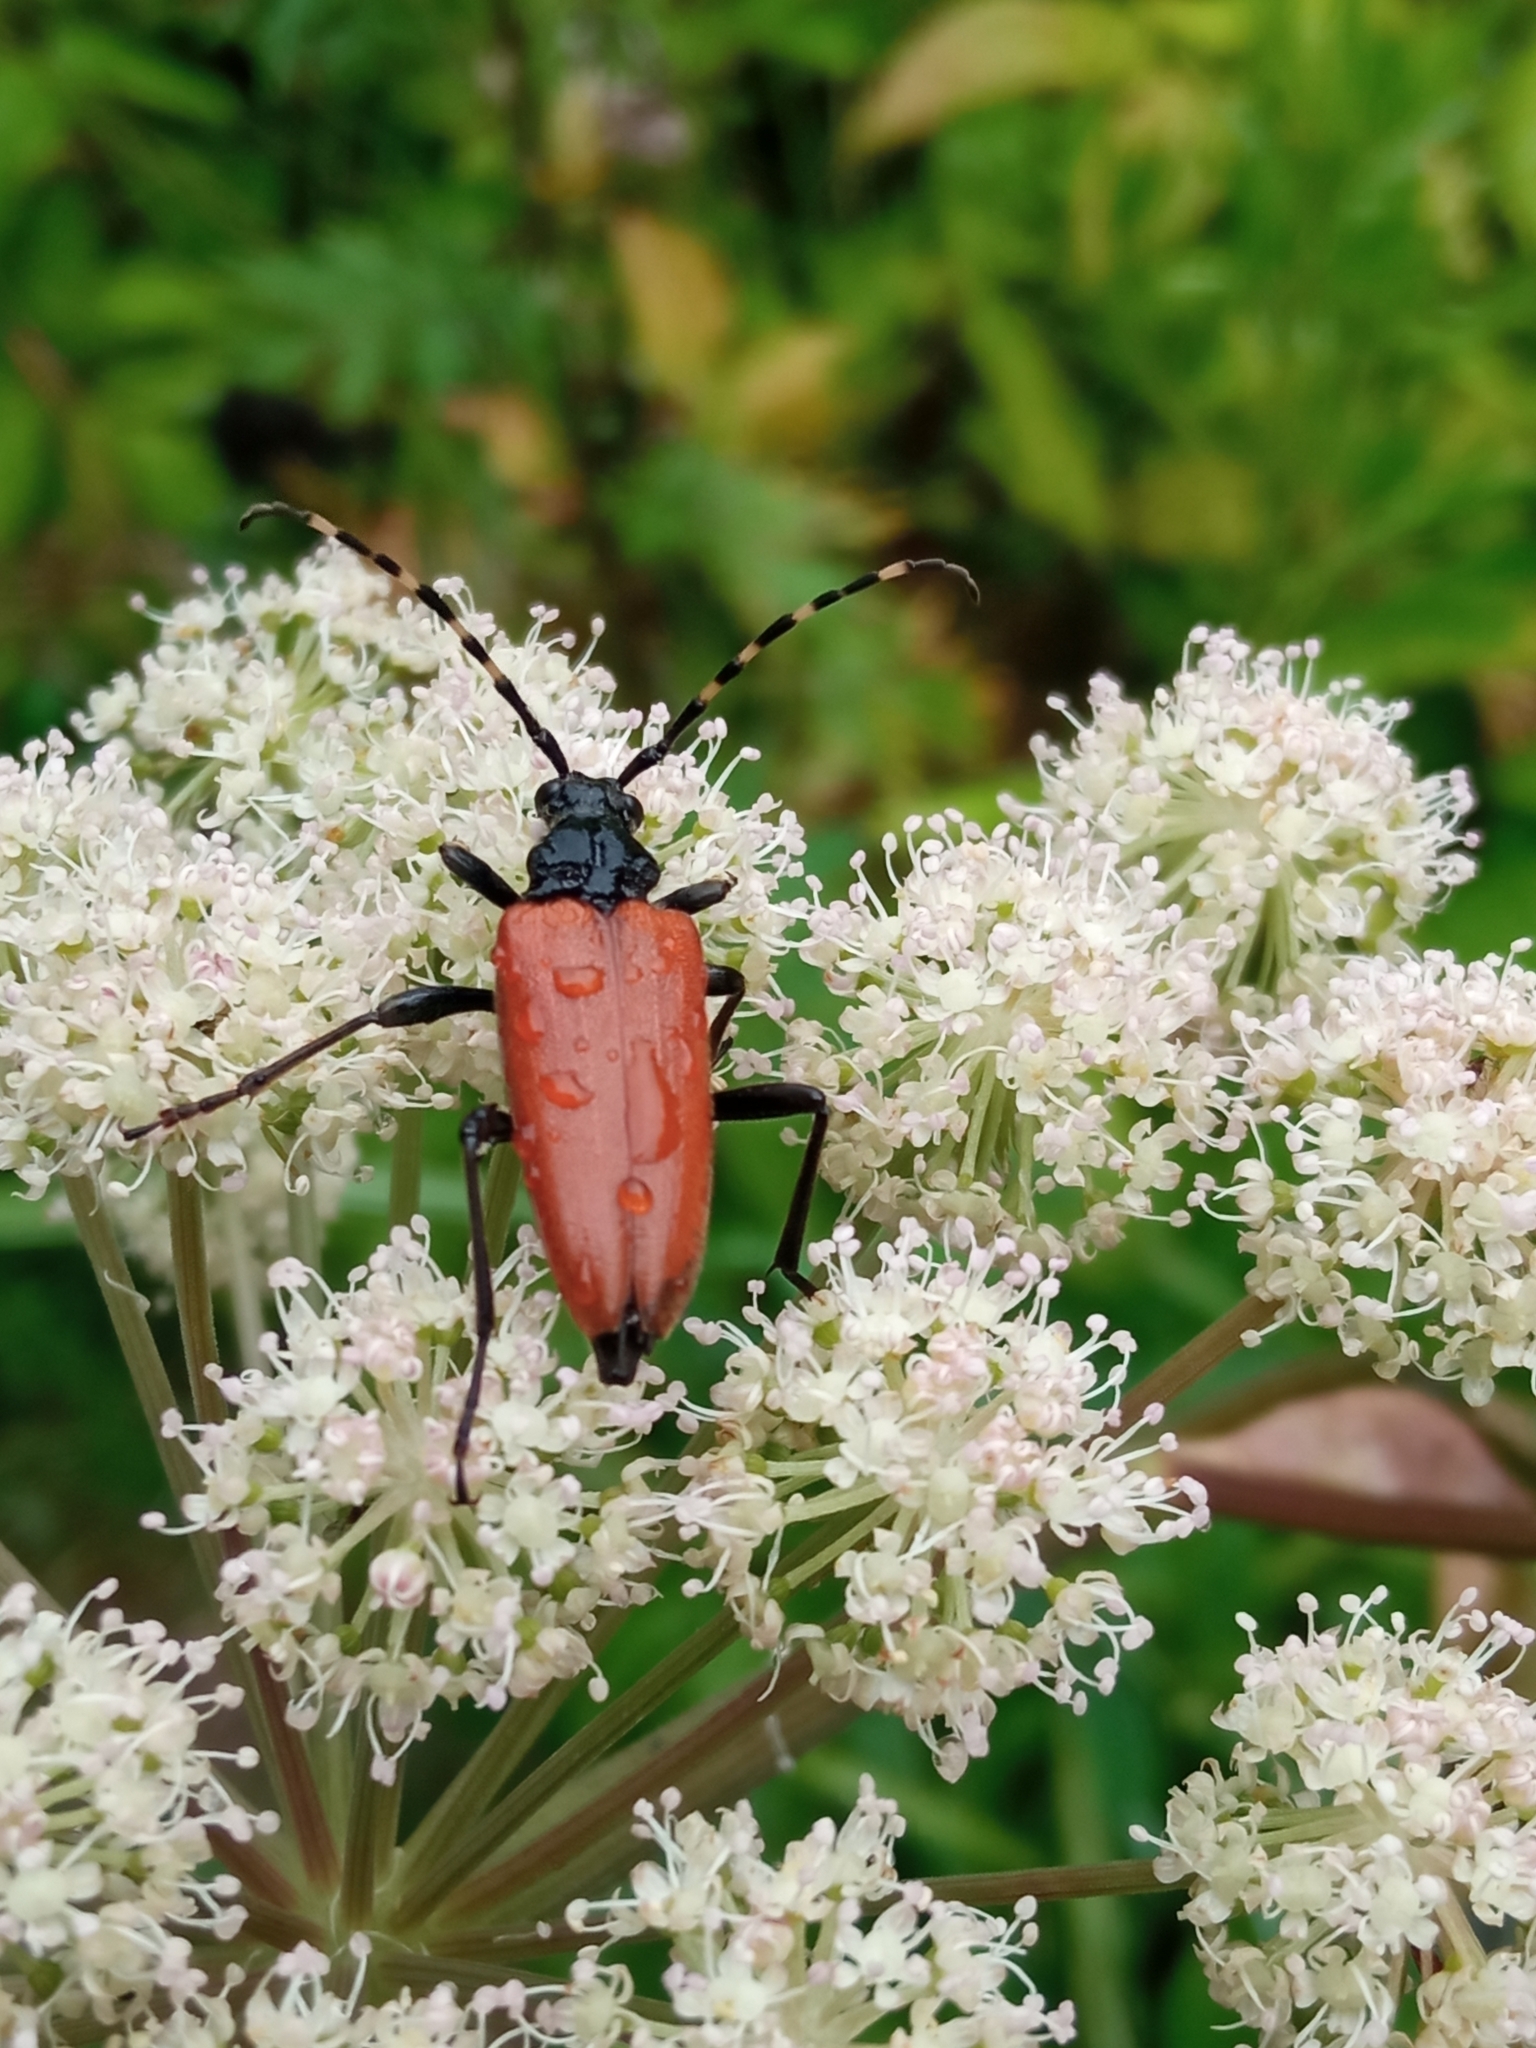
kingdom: Animalia
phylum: Arthropoda
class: Insecta
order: Coleoptera
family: Cerambycidae
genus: Stictoleptura
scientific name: Stictoleptura variicornis
